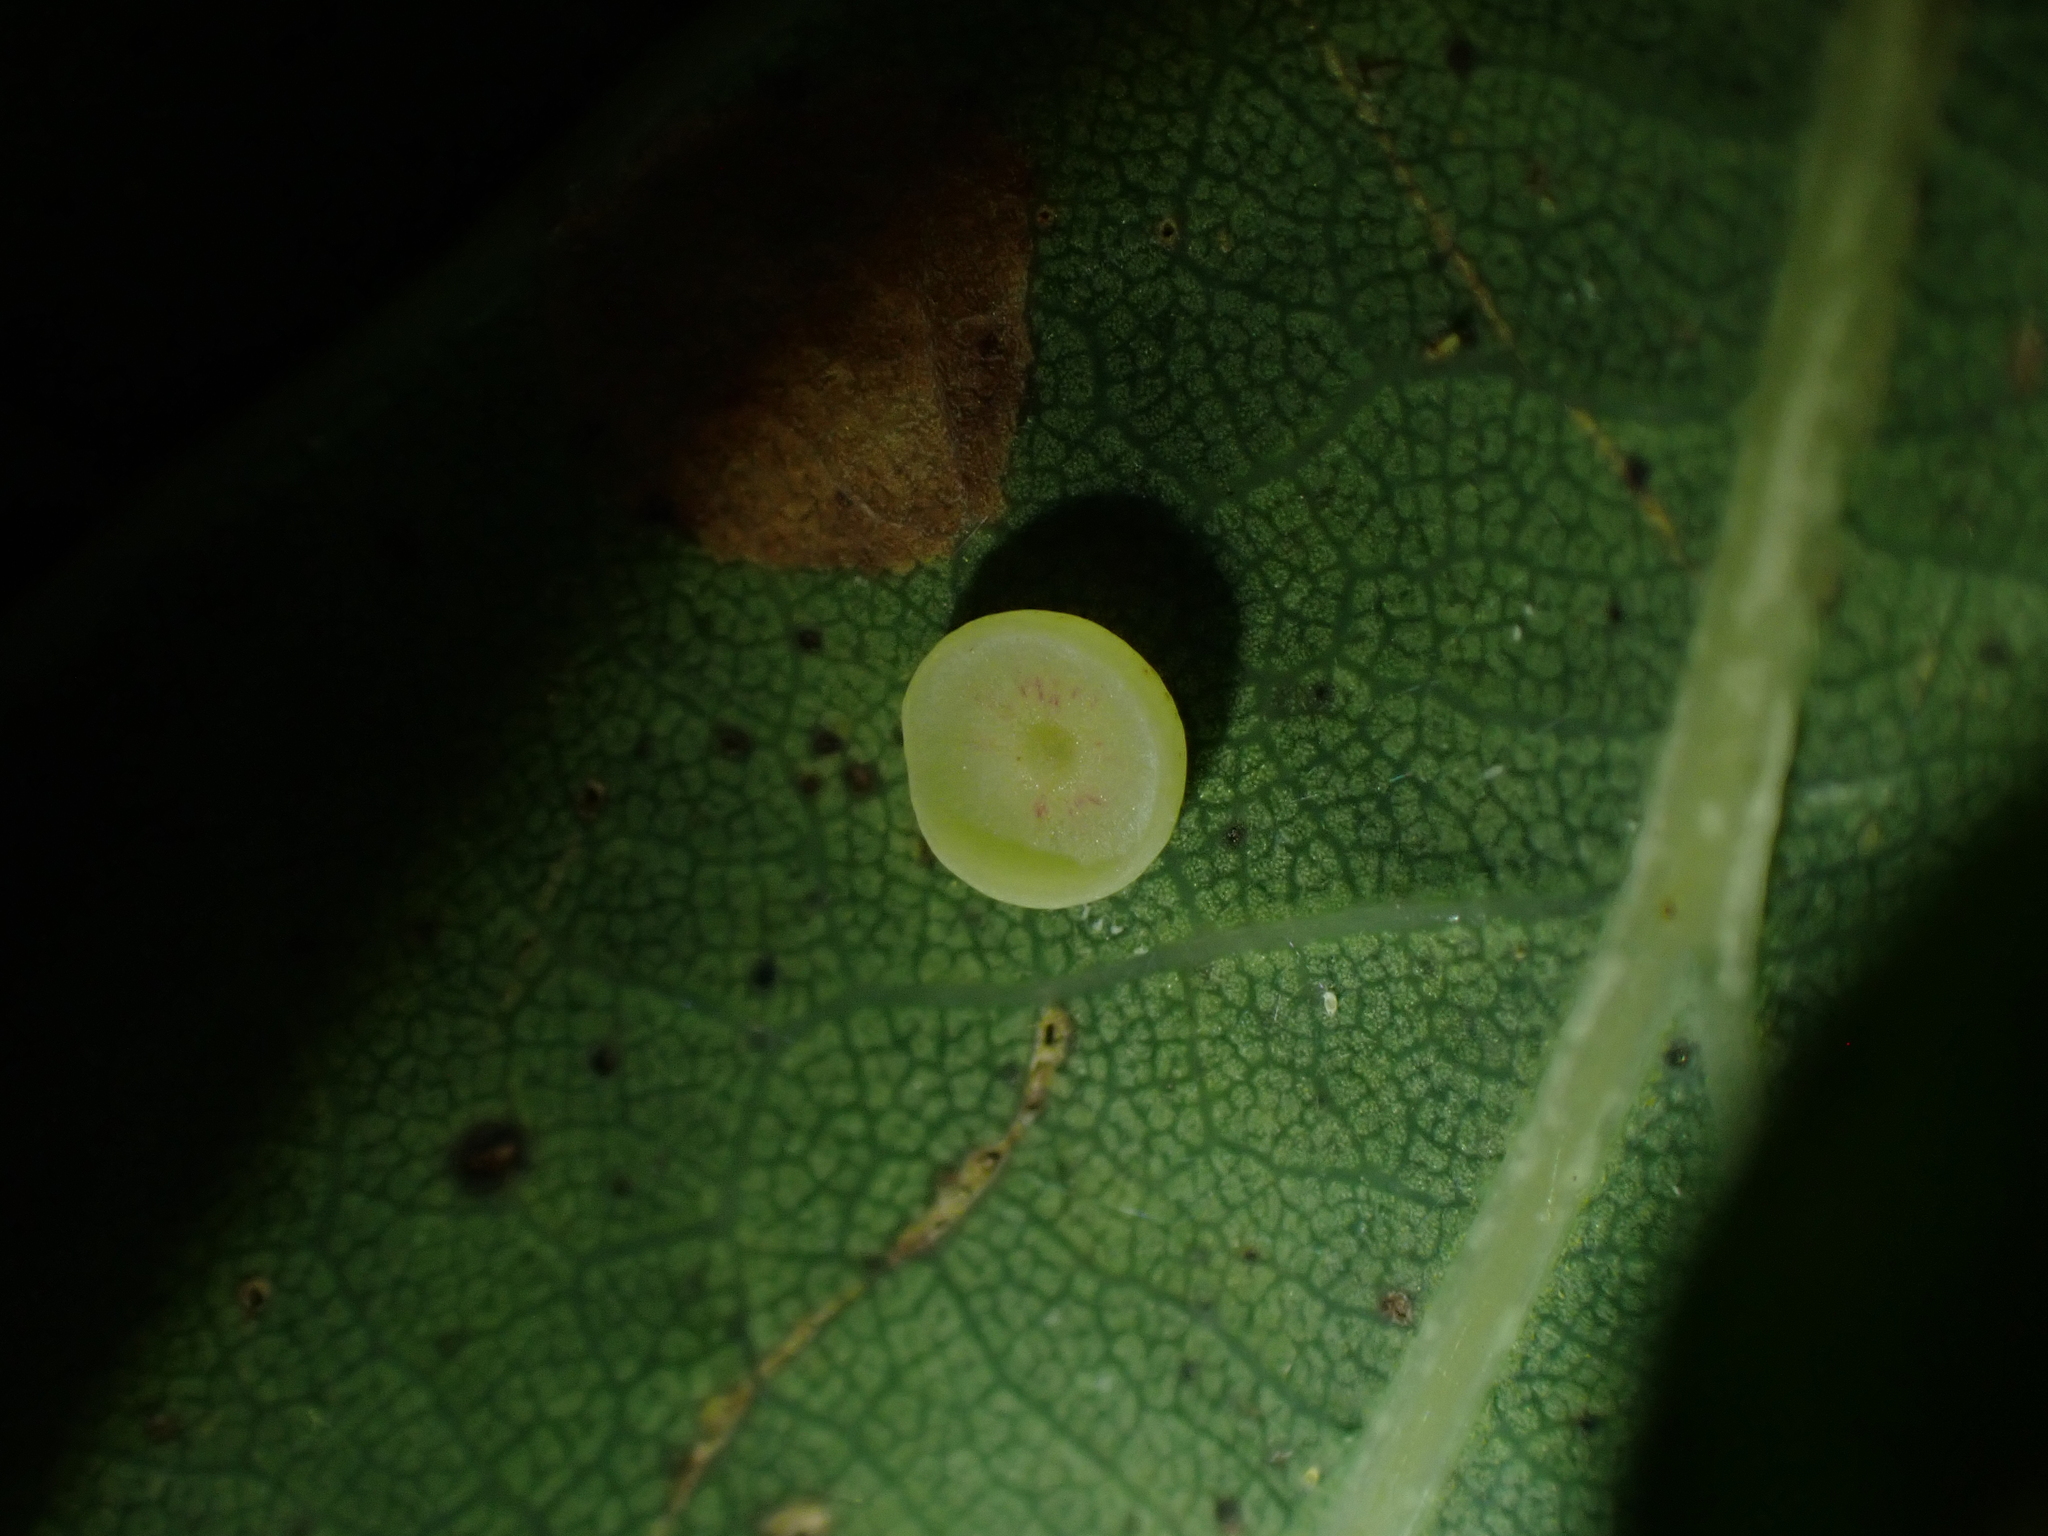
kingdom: Animalia
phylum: Arthropoda
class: Insecta
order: Hymenoptera
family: Cynipidae
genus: Neuroterus
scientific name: Neuroterus albipes
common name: Smooth spangle gall
